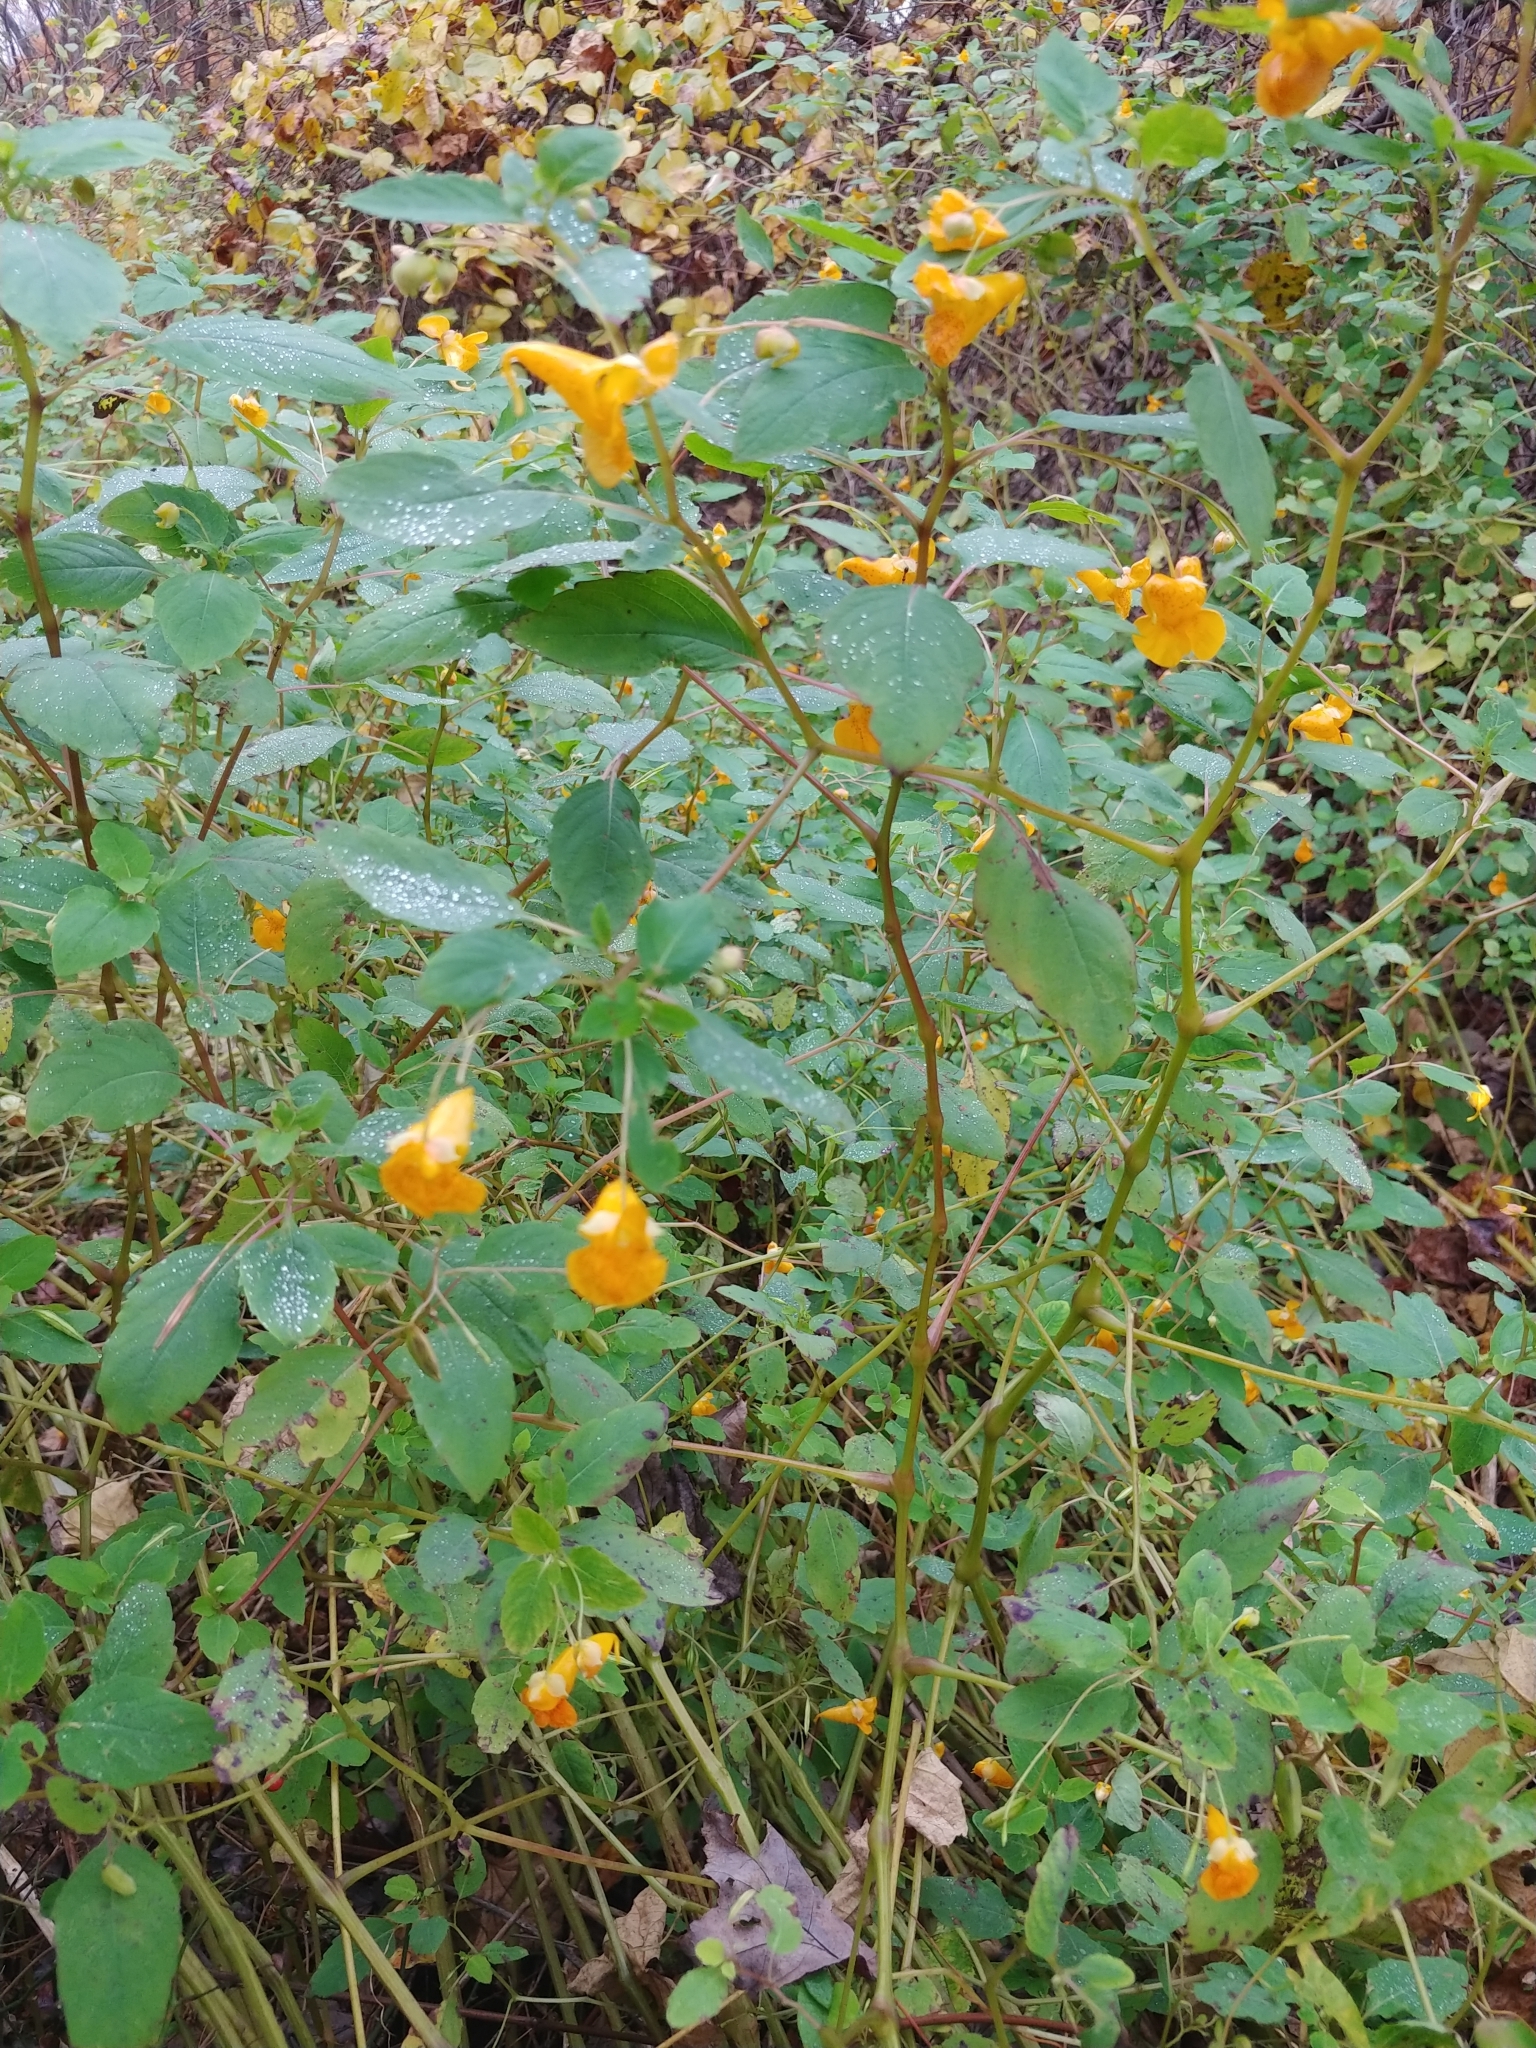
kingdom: Plantae
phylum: Tracheophyta
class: Magnoliopsida
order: Ericales
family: Balsaminaceae
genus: Impatiens
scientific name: Impatiens capensis
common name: Orange balsam
